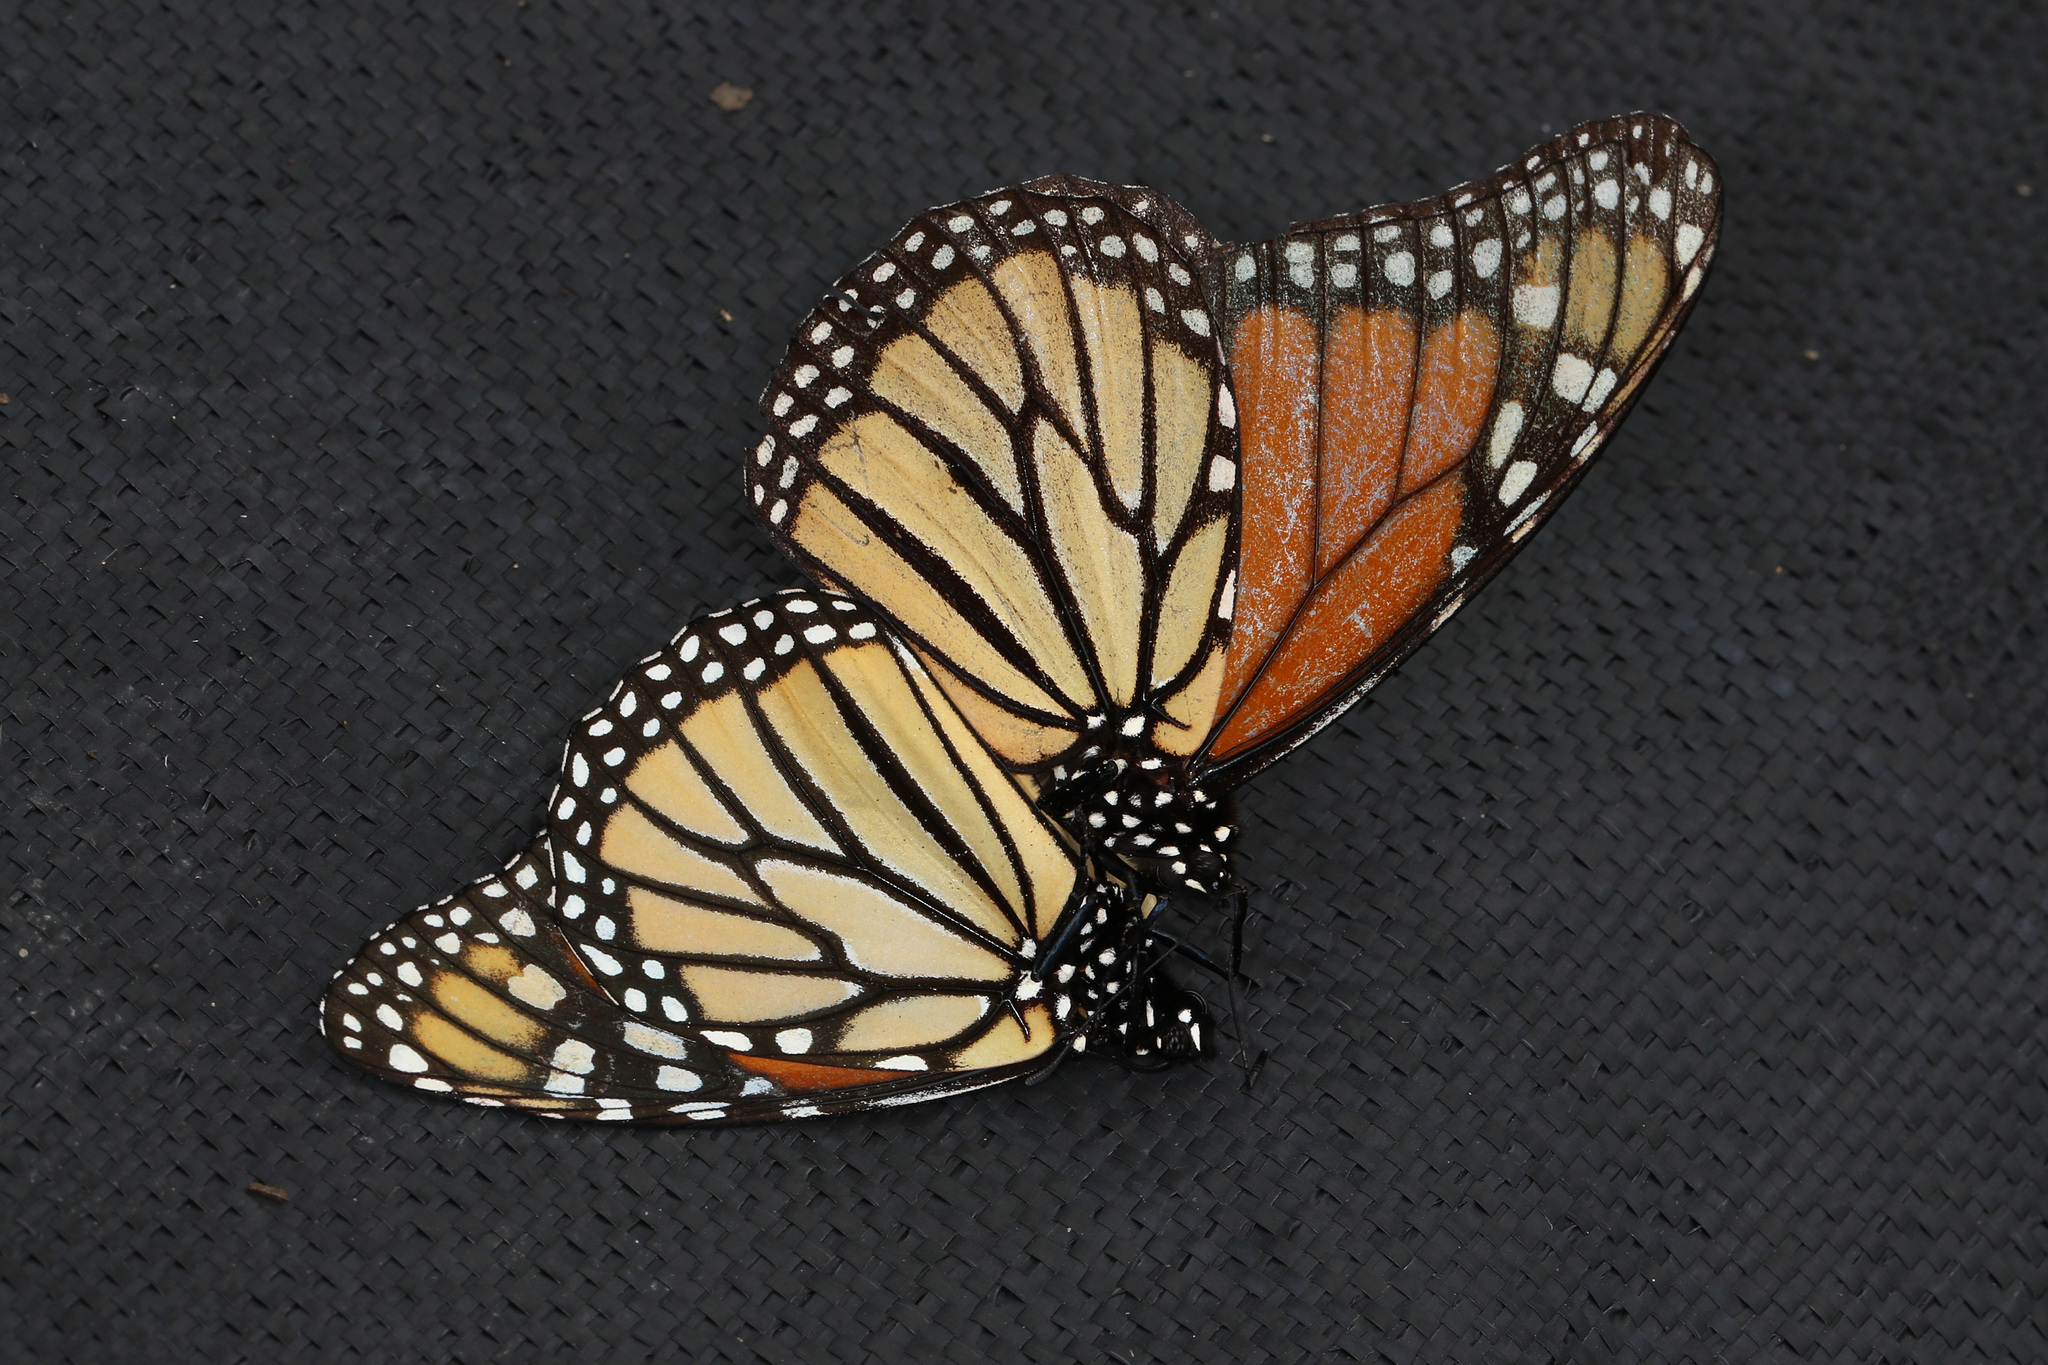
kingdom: Animalia
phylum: Arthropoda
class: Insecta
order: Lepidoptera
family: Nymphalidae
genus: Danaus
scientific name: Danaus plexippus
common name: Monarch
